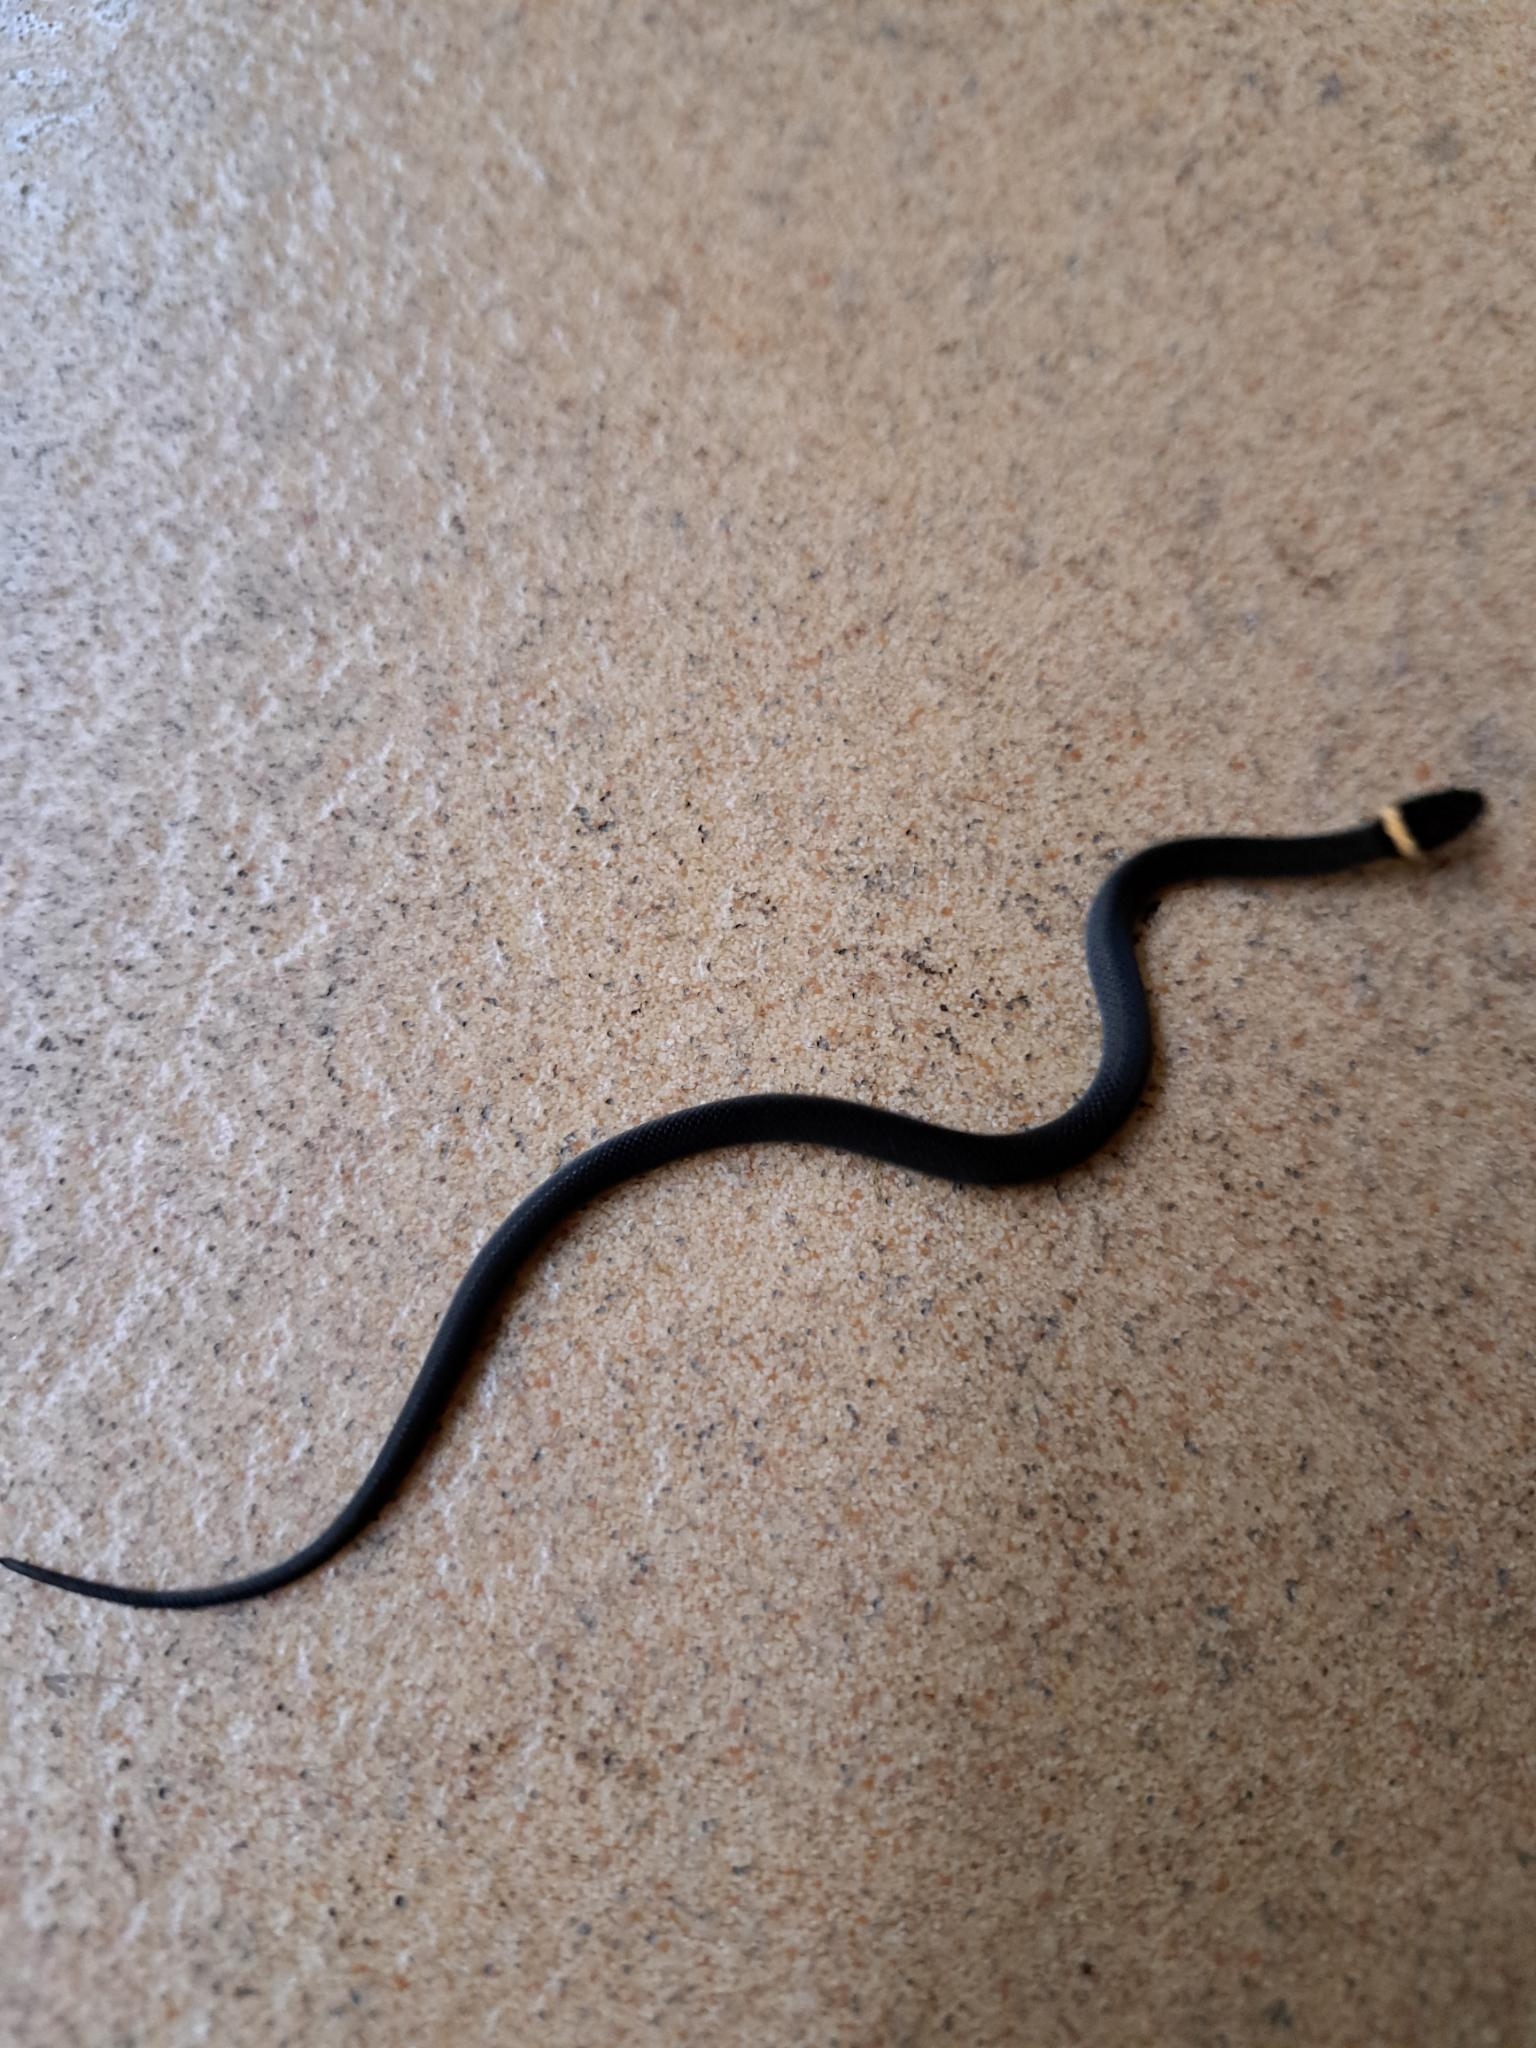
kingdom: Animalia
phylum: Chordata
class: Squamata
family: Colubridae
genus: Diadophis
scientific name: Diadophis punctatus
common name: Ringneck snake
